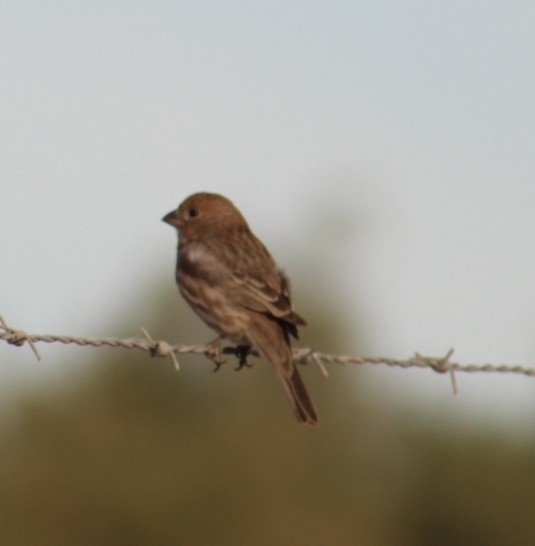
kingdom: Animalia
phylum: Chordata
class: Aves
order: Passeriformes
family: Fringillidae
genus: Haemorhous
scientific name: Haemorhous mexicanus
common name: House finch
